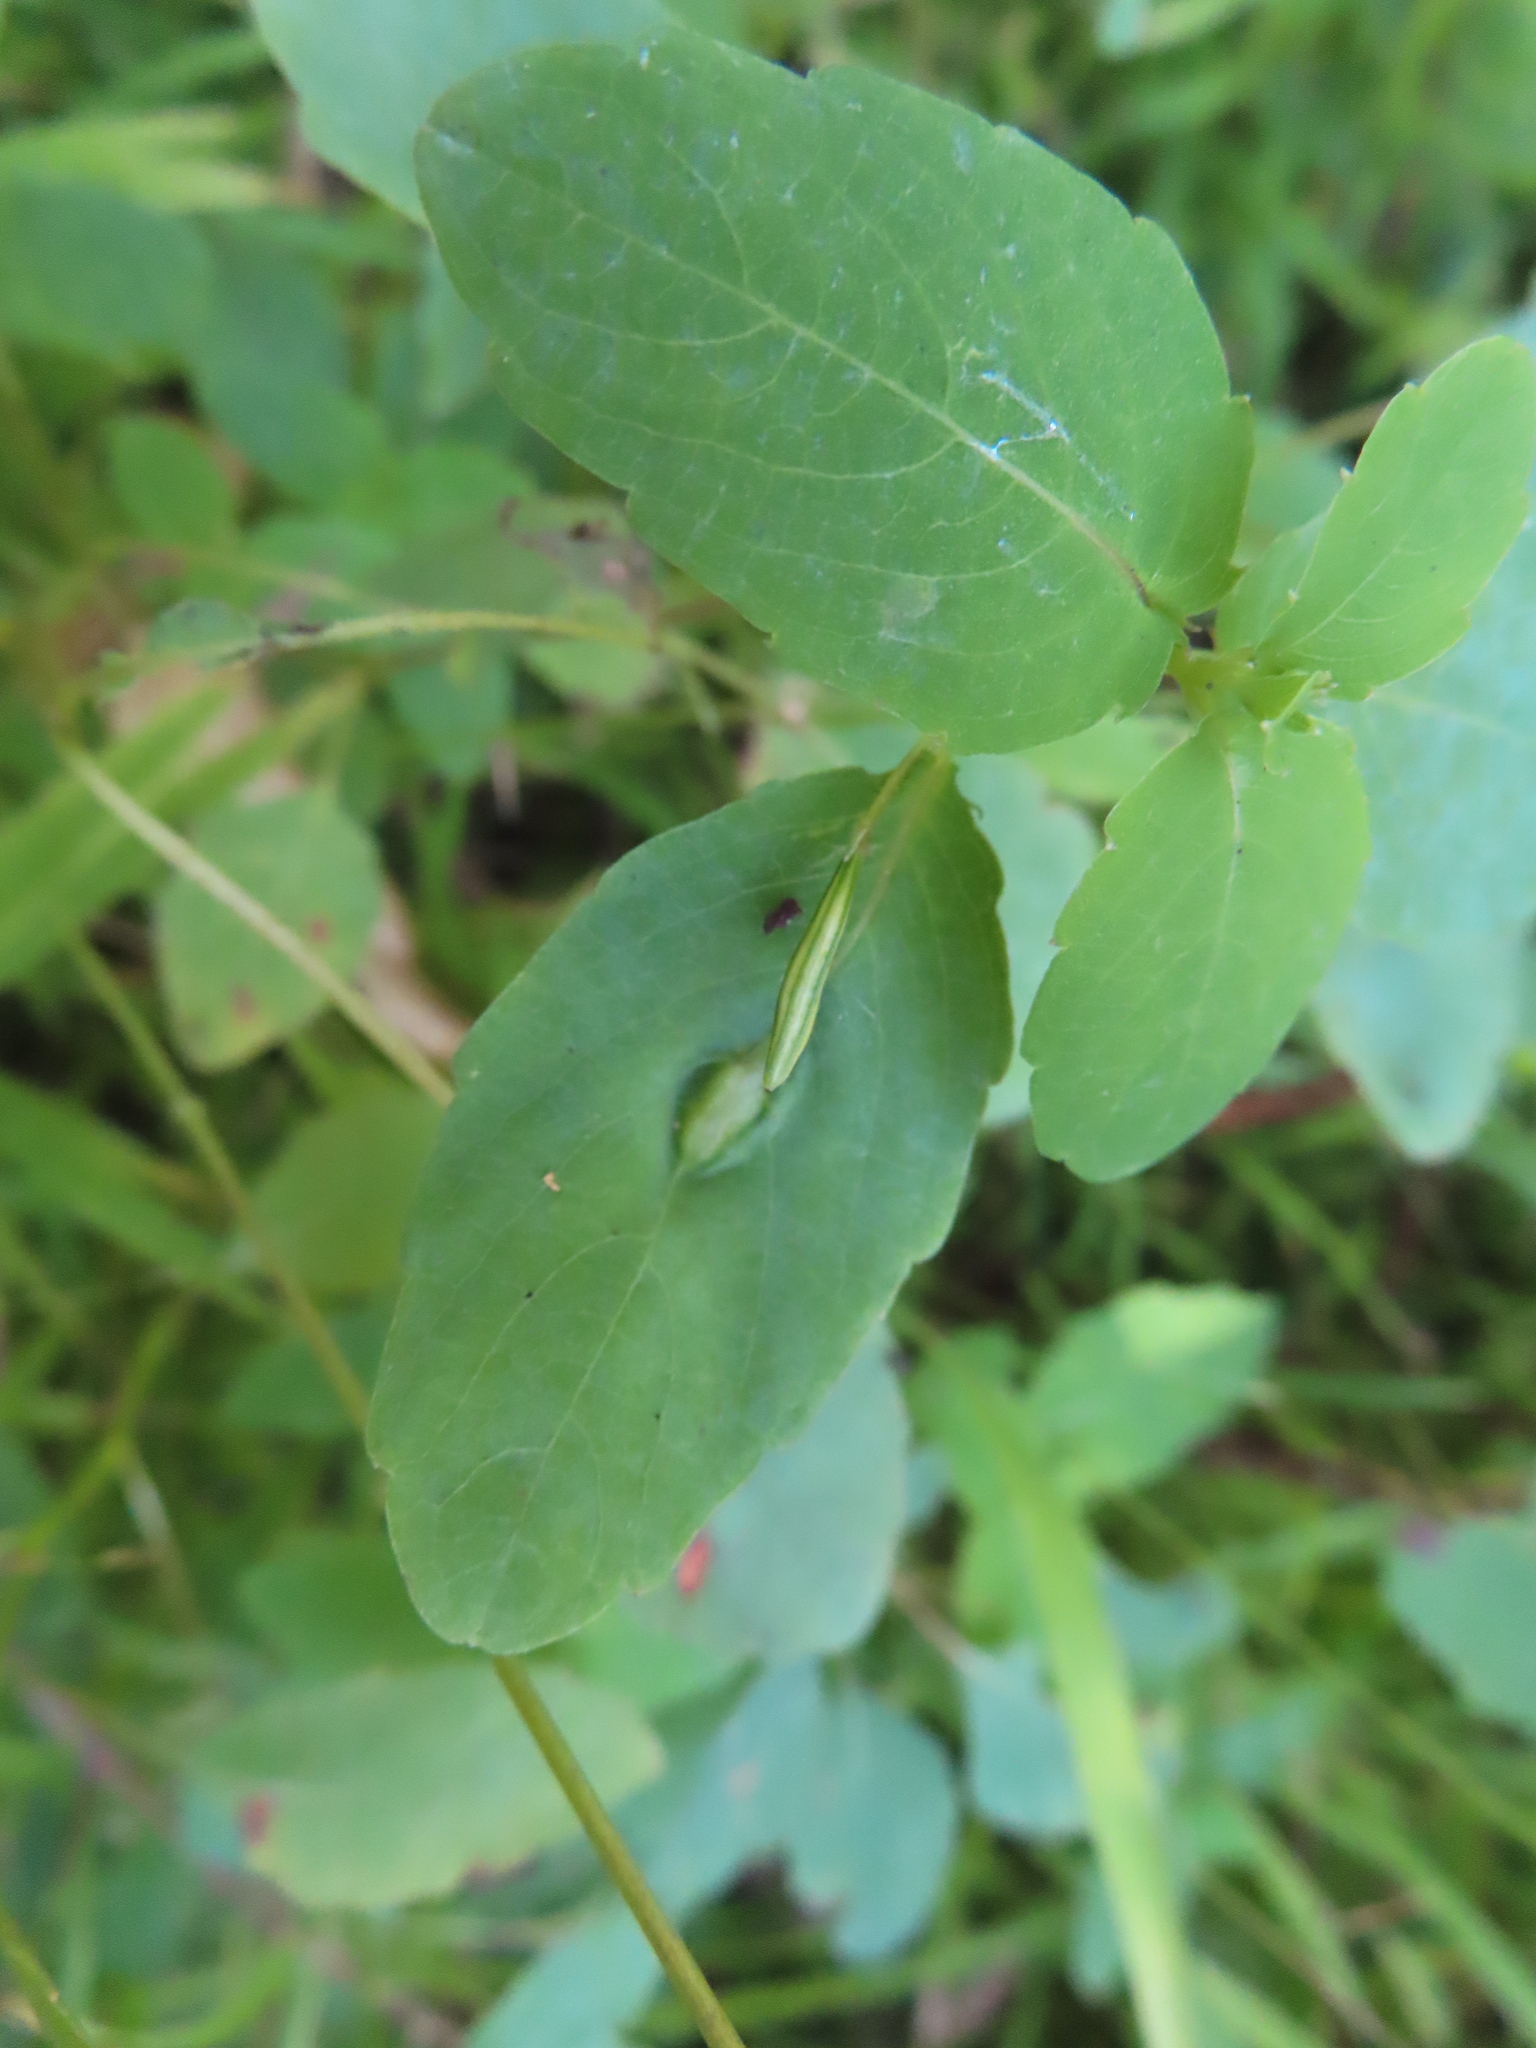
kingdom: Animalia
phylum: Arthropoda
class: Insecta
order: Diptera
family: Cecidomyiidae
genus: Neolasioptera
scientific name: Neolasioptera impatientifolia
